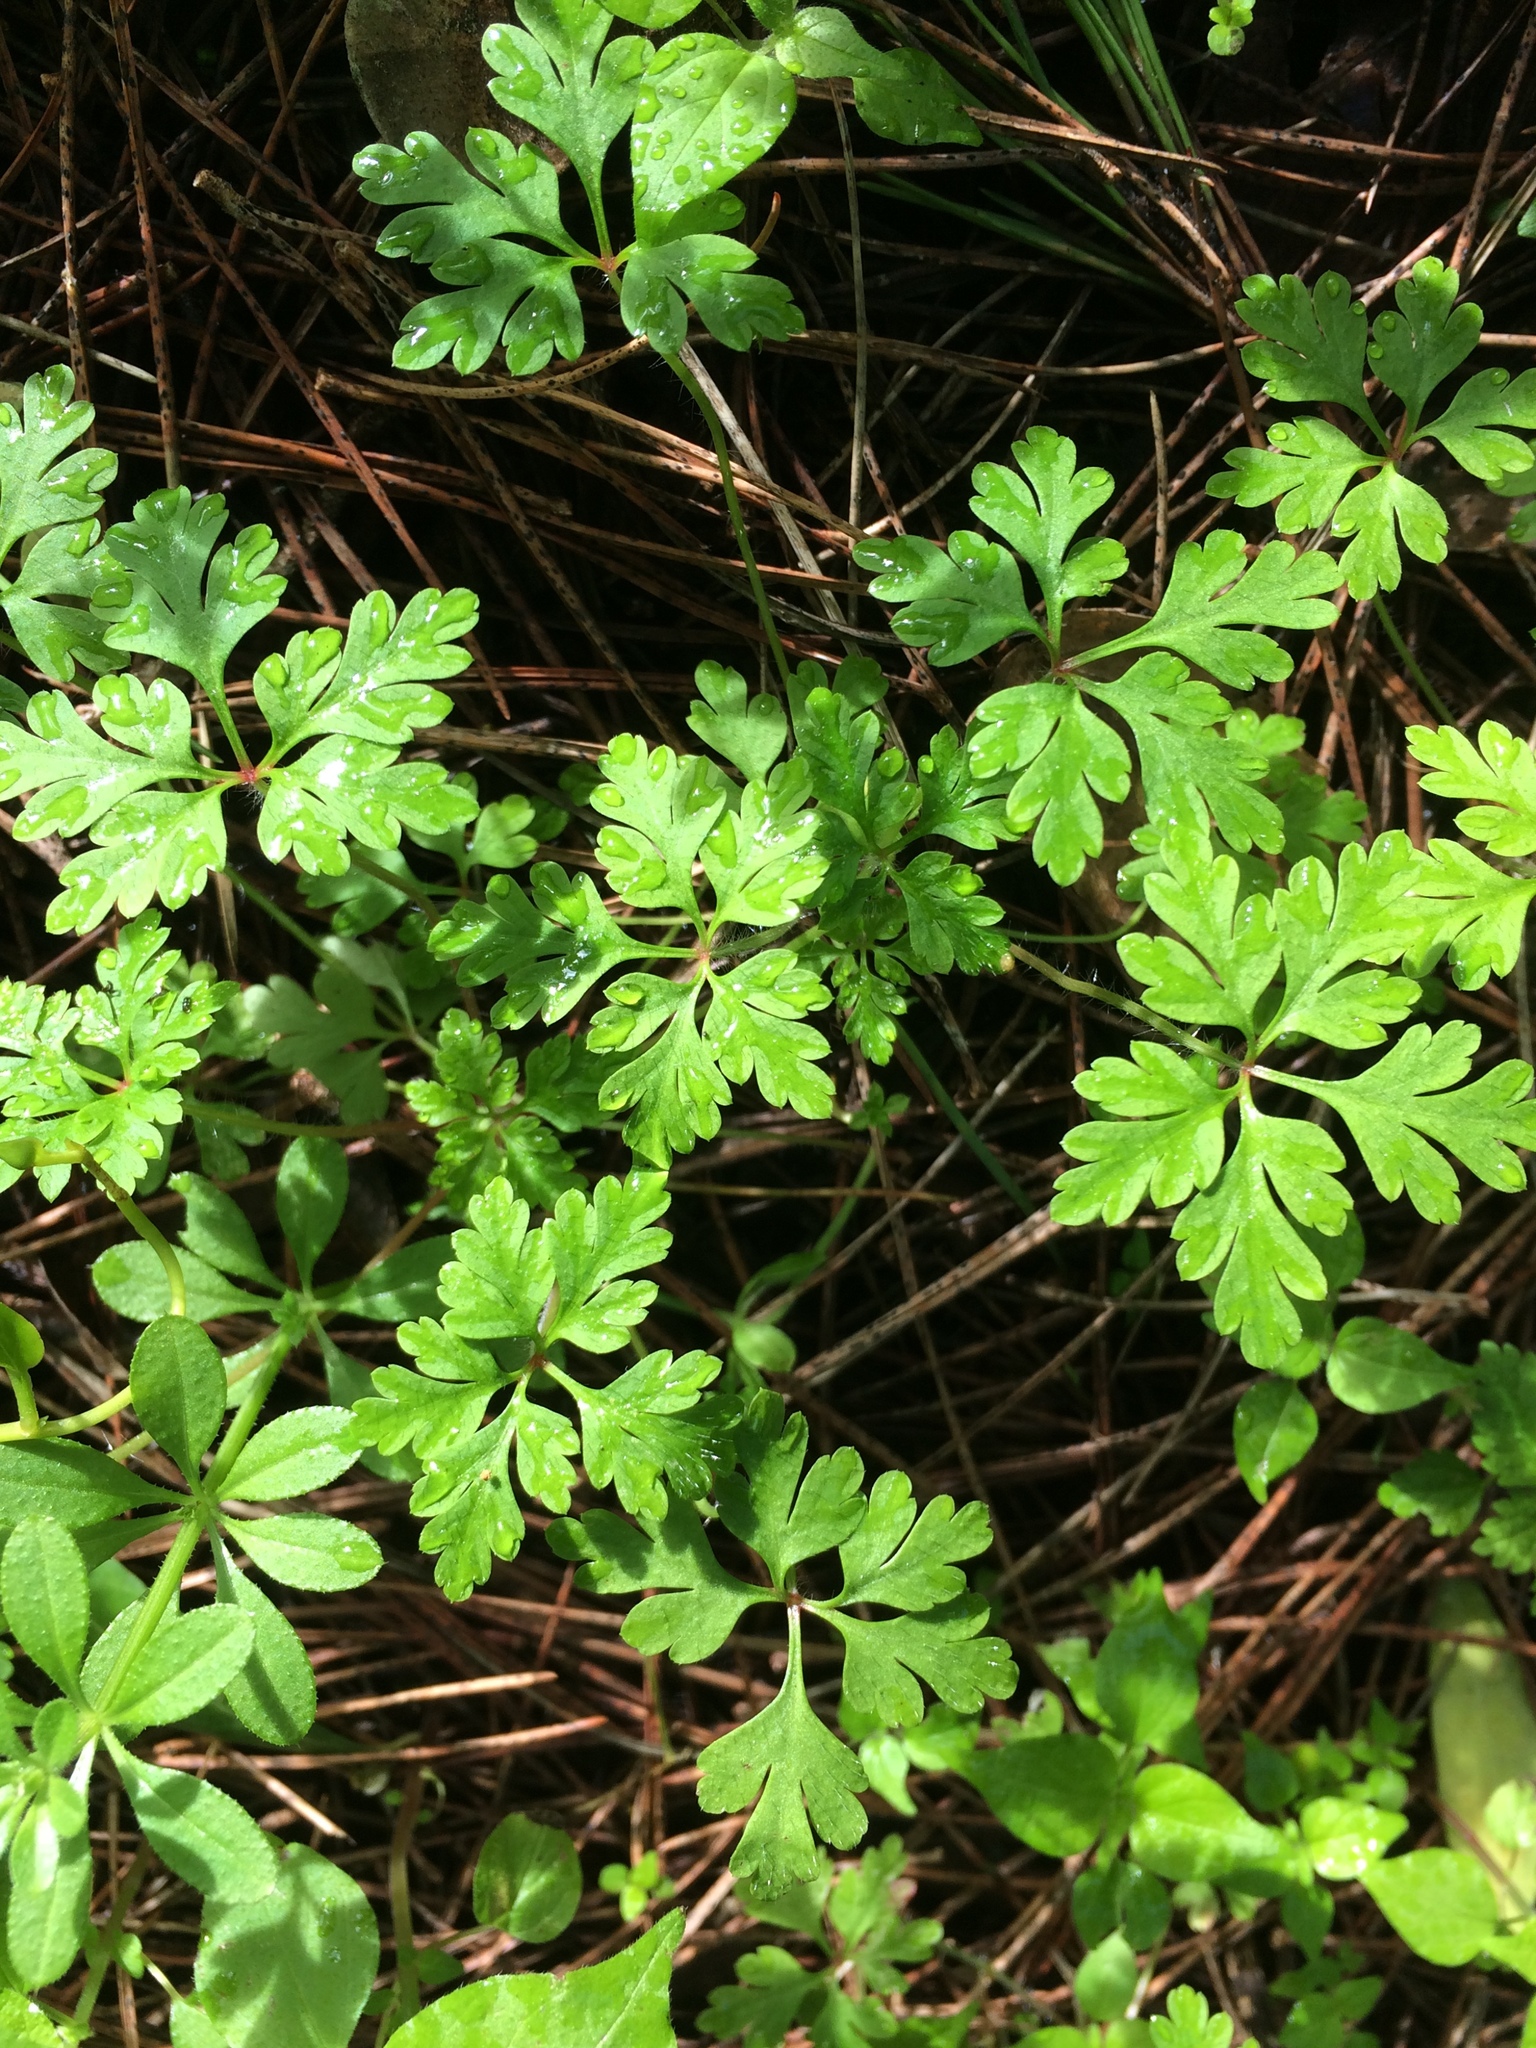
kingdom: Plantae
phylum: Tracheophyta
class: Magnoliopsida
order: Geraniales
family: Geraniaceae
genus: Geranium
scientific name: Geranium robertianum
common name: Herb-robert
